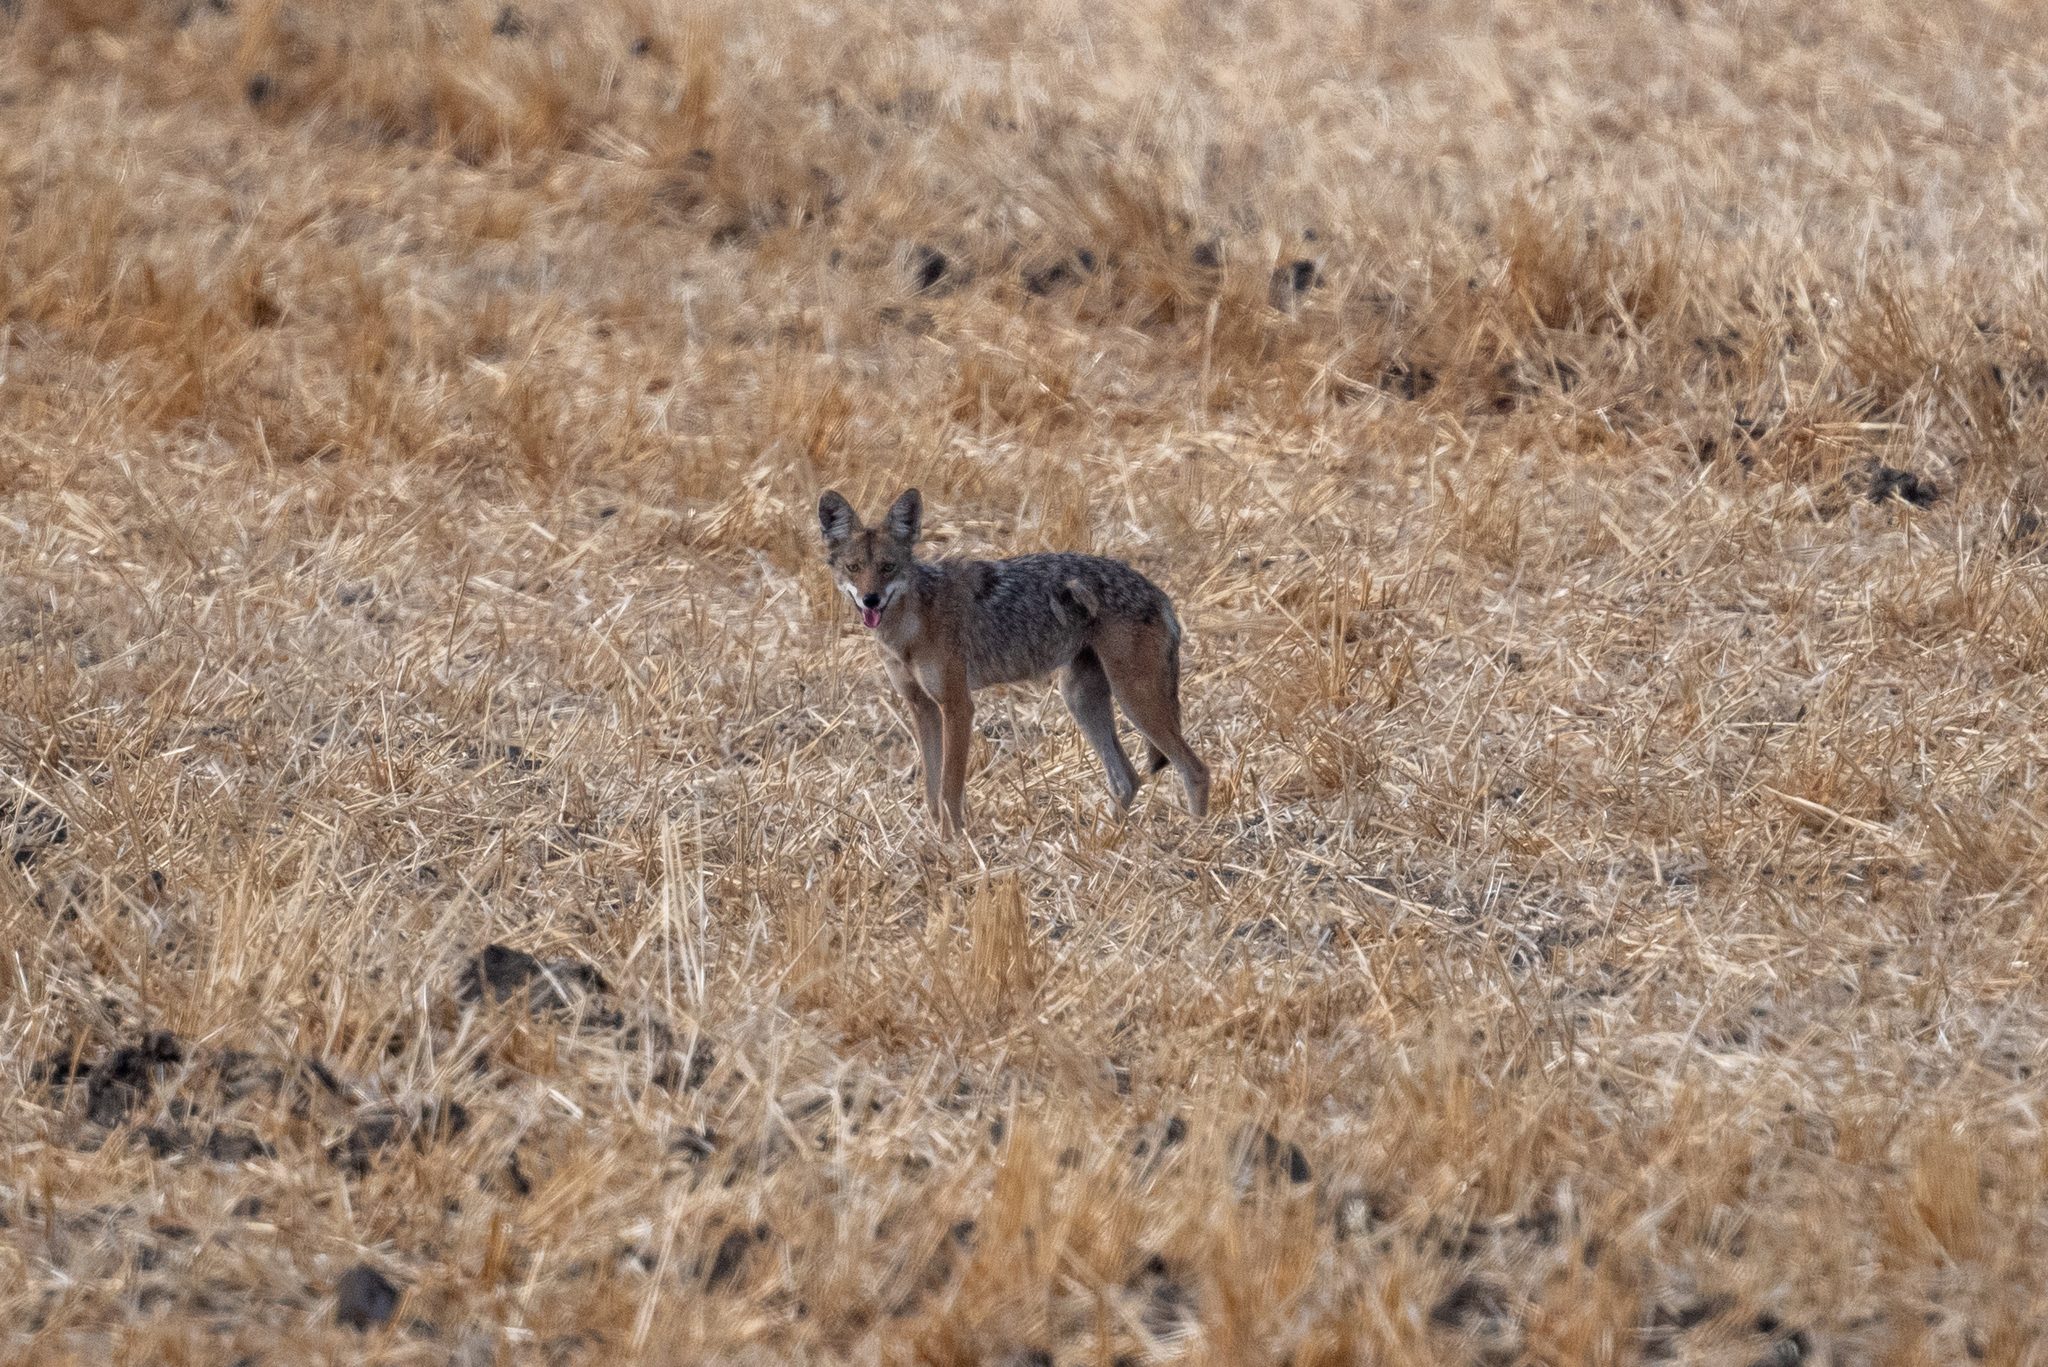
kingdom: Animalia
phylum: Chordata
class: Mammalia
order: Carnivora
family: Canidae
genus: Canis
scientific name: Canis latrans
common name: Coyote
